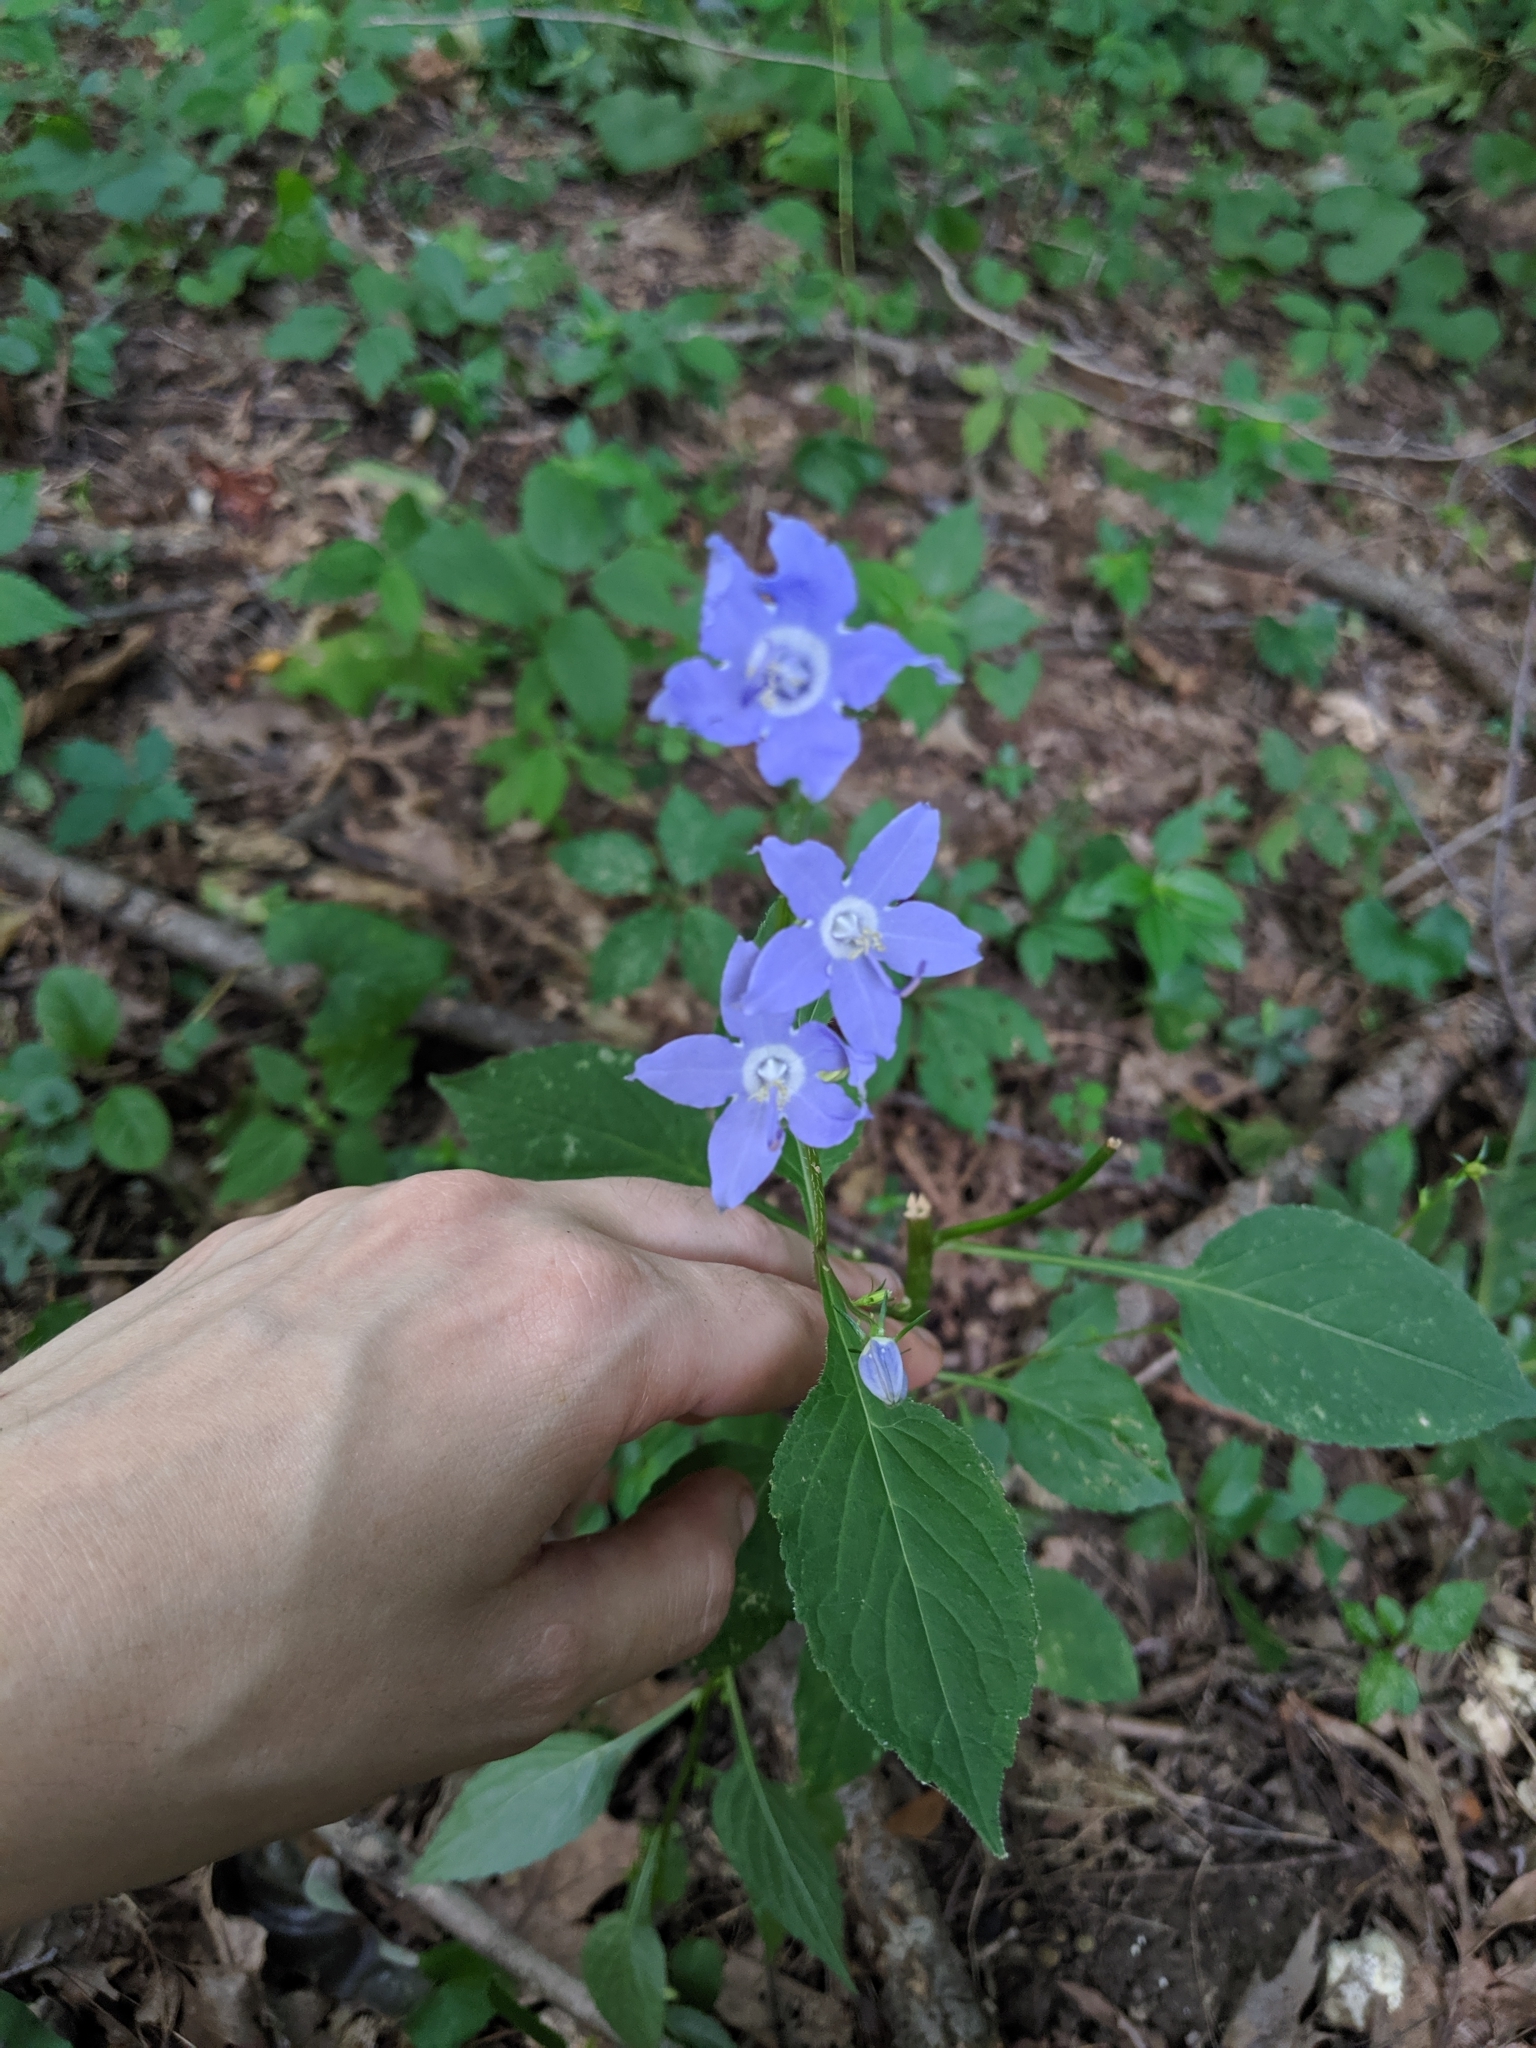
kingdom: Plantae
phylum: Tracheophyta
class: Magnoliopsida
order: Asterales
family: Campanulaceae
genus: Campanulastrum
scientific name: Campanulastrum americanum
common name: American bellflower
